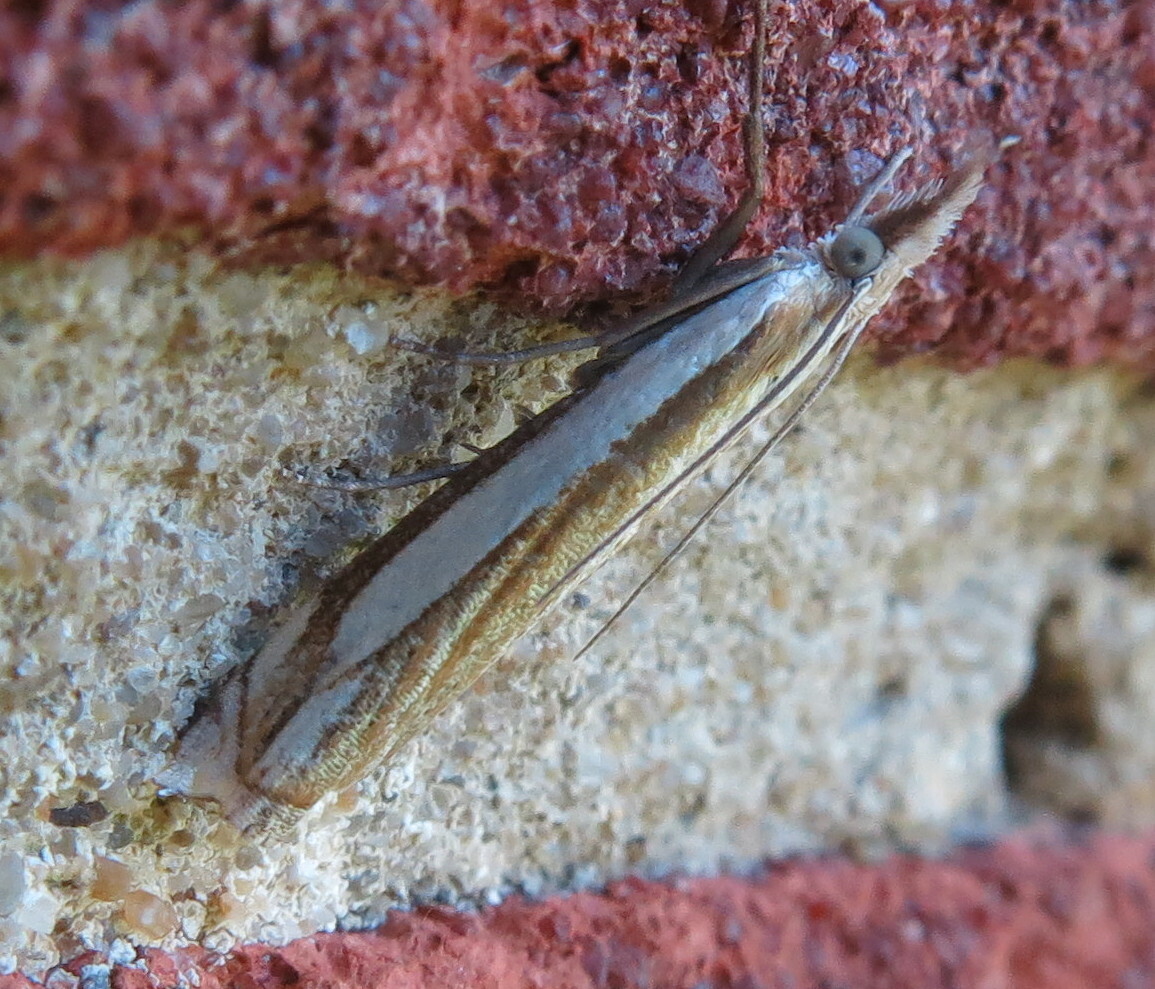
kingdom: Animalia
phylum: Arthropoda
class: Insecta
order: Lepidoptera
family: Crambidae
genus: Crambus
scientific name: Crambus pascuella
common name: Inlaid grass-veneer
